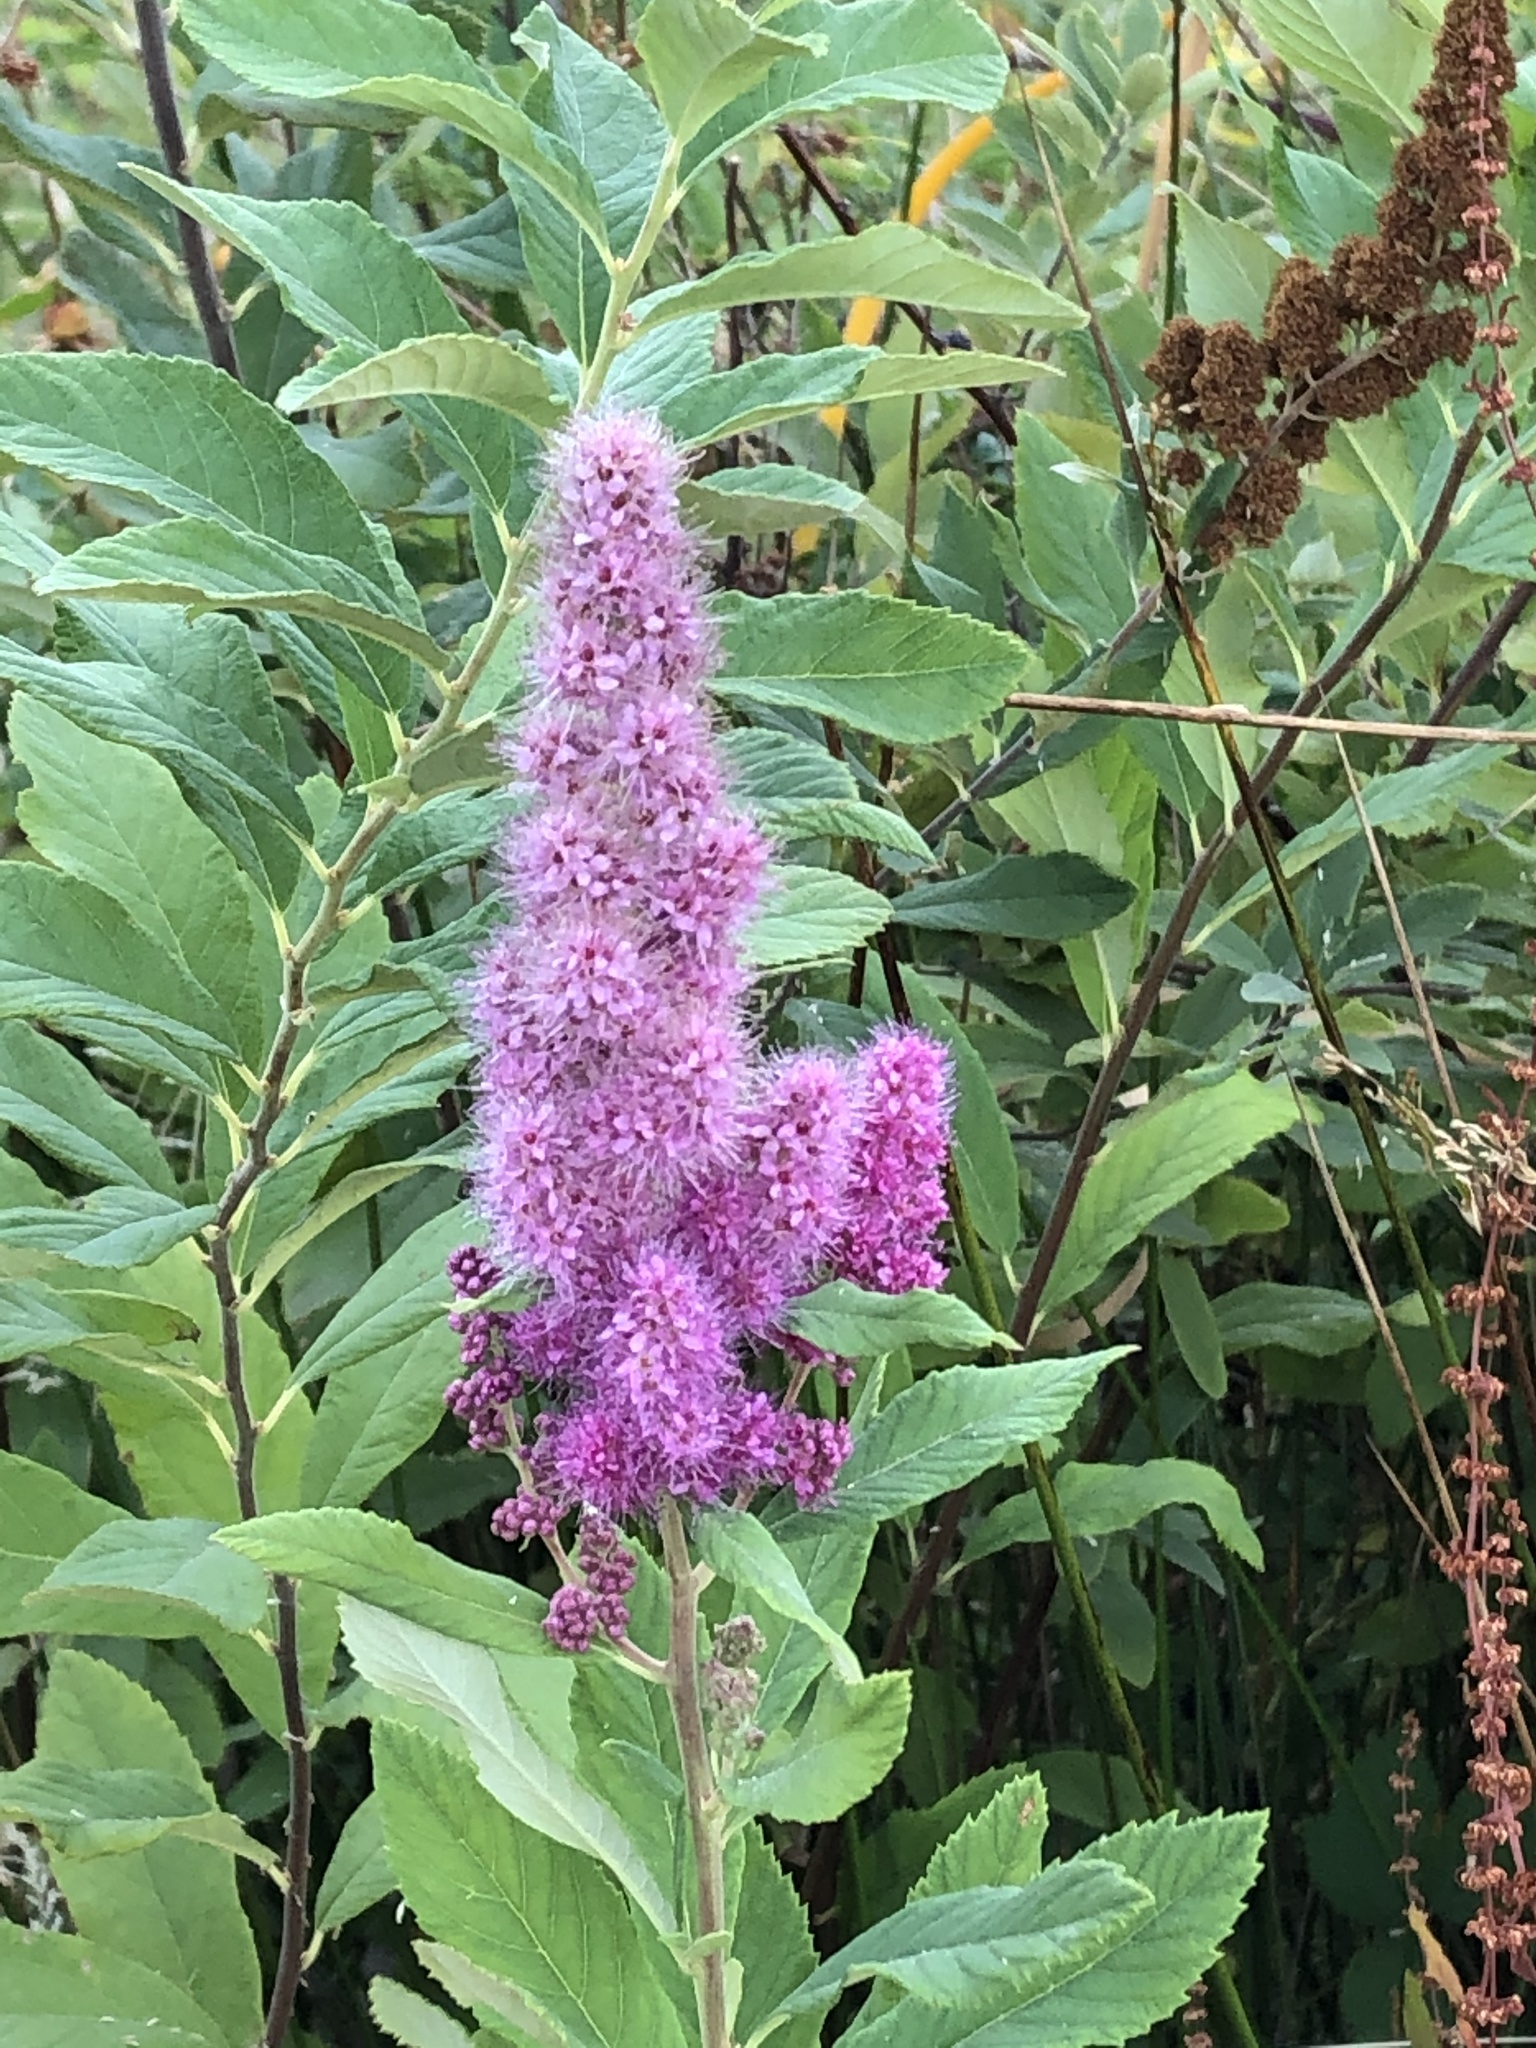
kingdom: Plantae
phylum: Tracheophyta
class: Magnoliopsida
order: Rosales
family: Rosaceae
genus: Spiraea
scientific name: Spiraea douglasii
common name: Steeplebush
